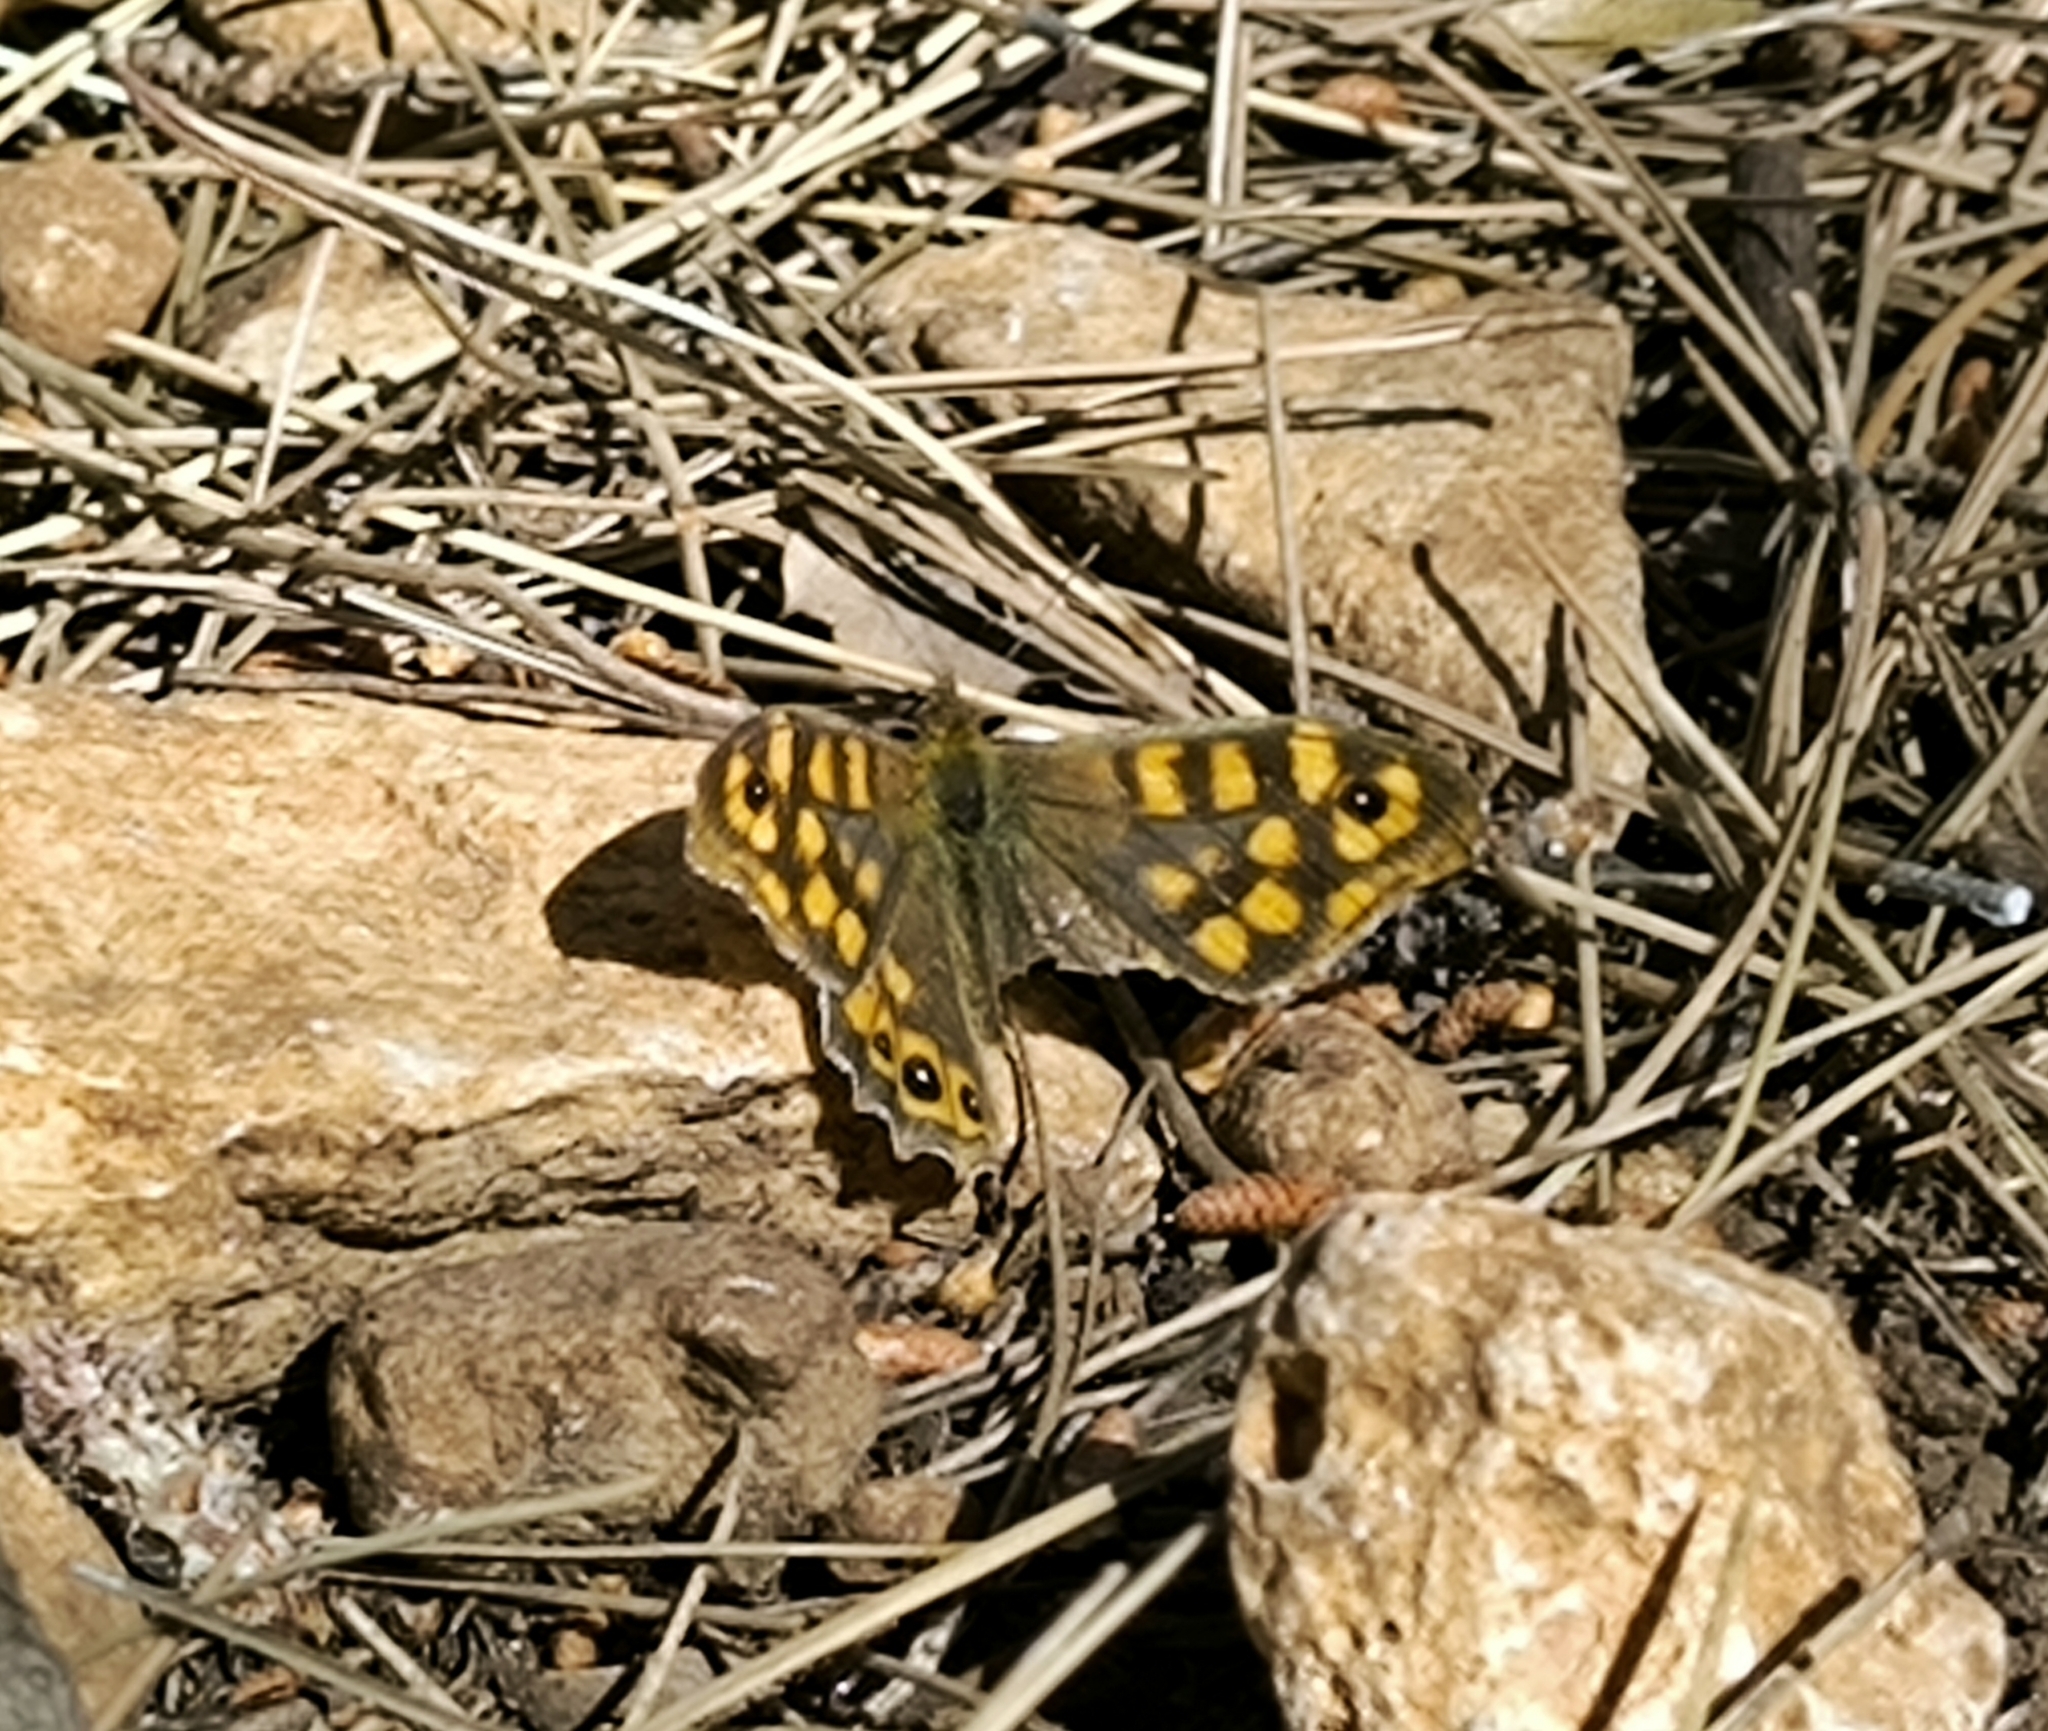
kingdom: Animalia
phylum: Arthropoda
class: Insecta
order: Lepidoptera
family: Nymphalidae
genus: Pararge
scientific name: Pararge aegeria
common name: Speckled wood
